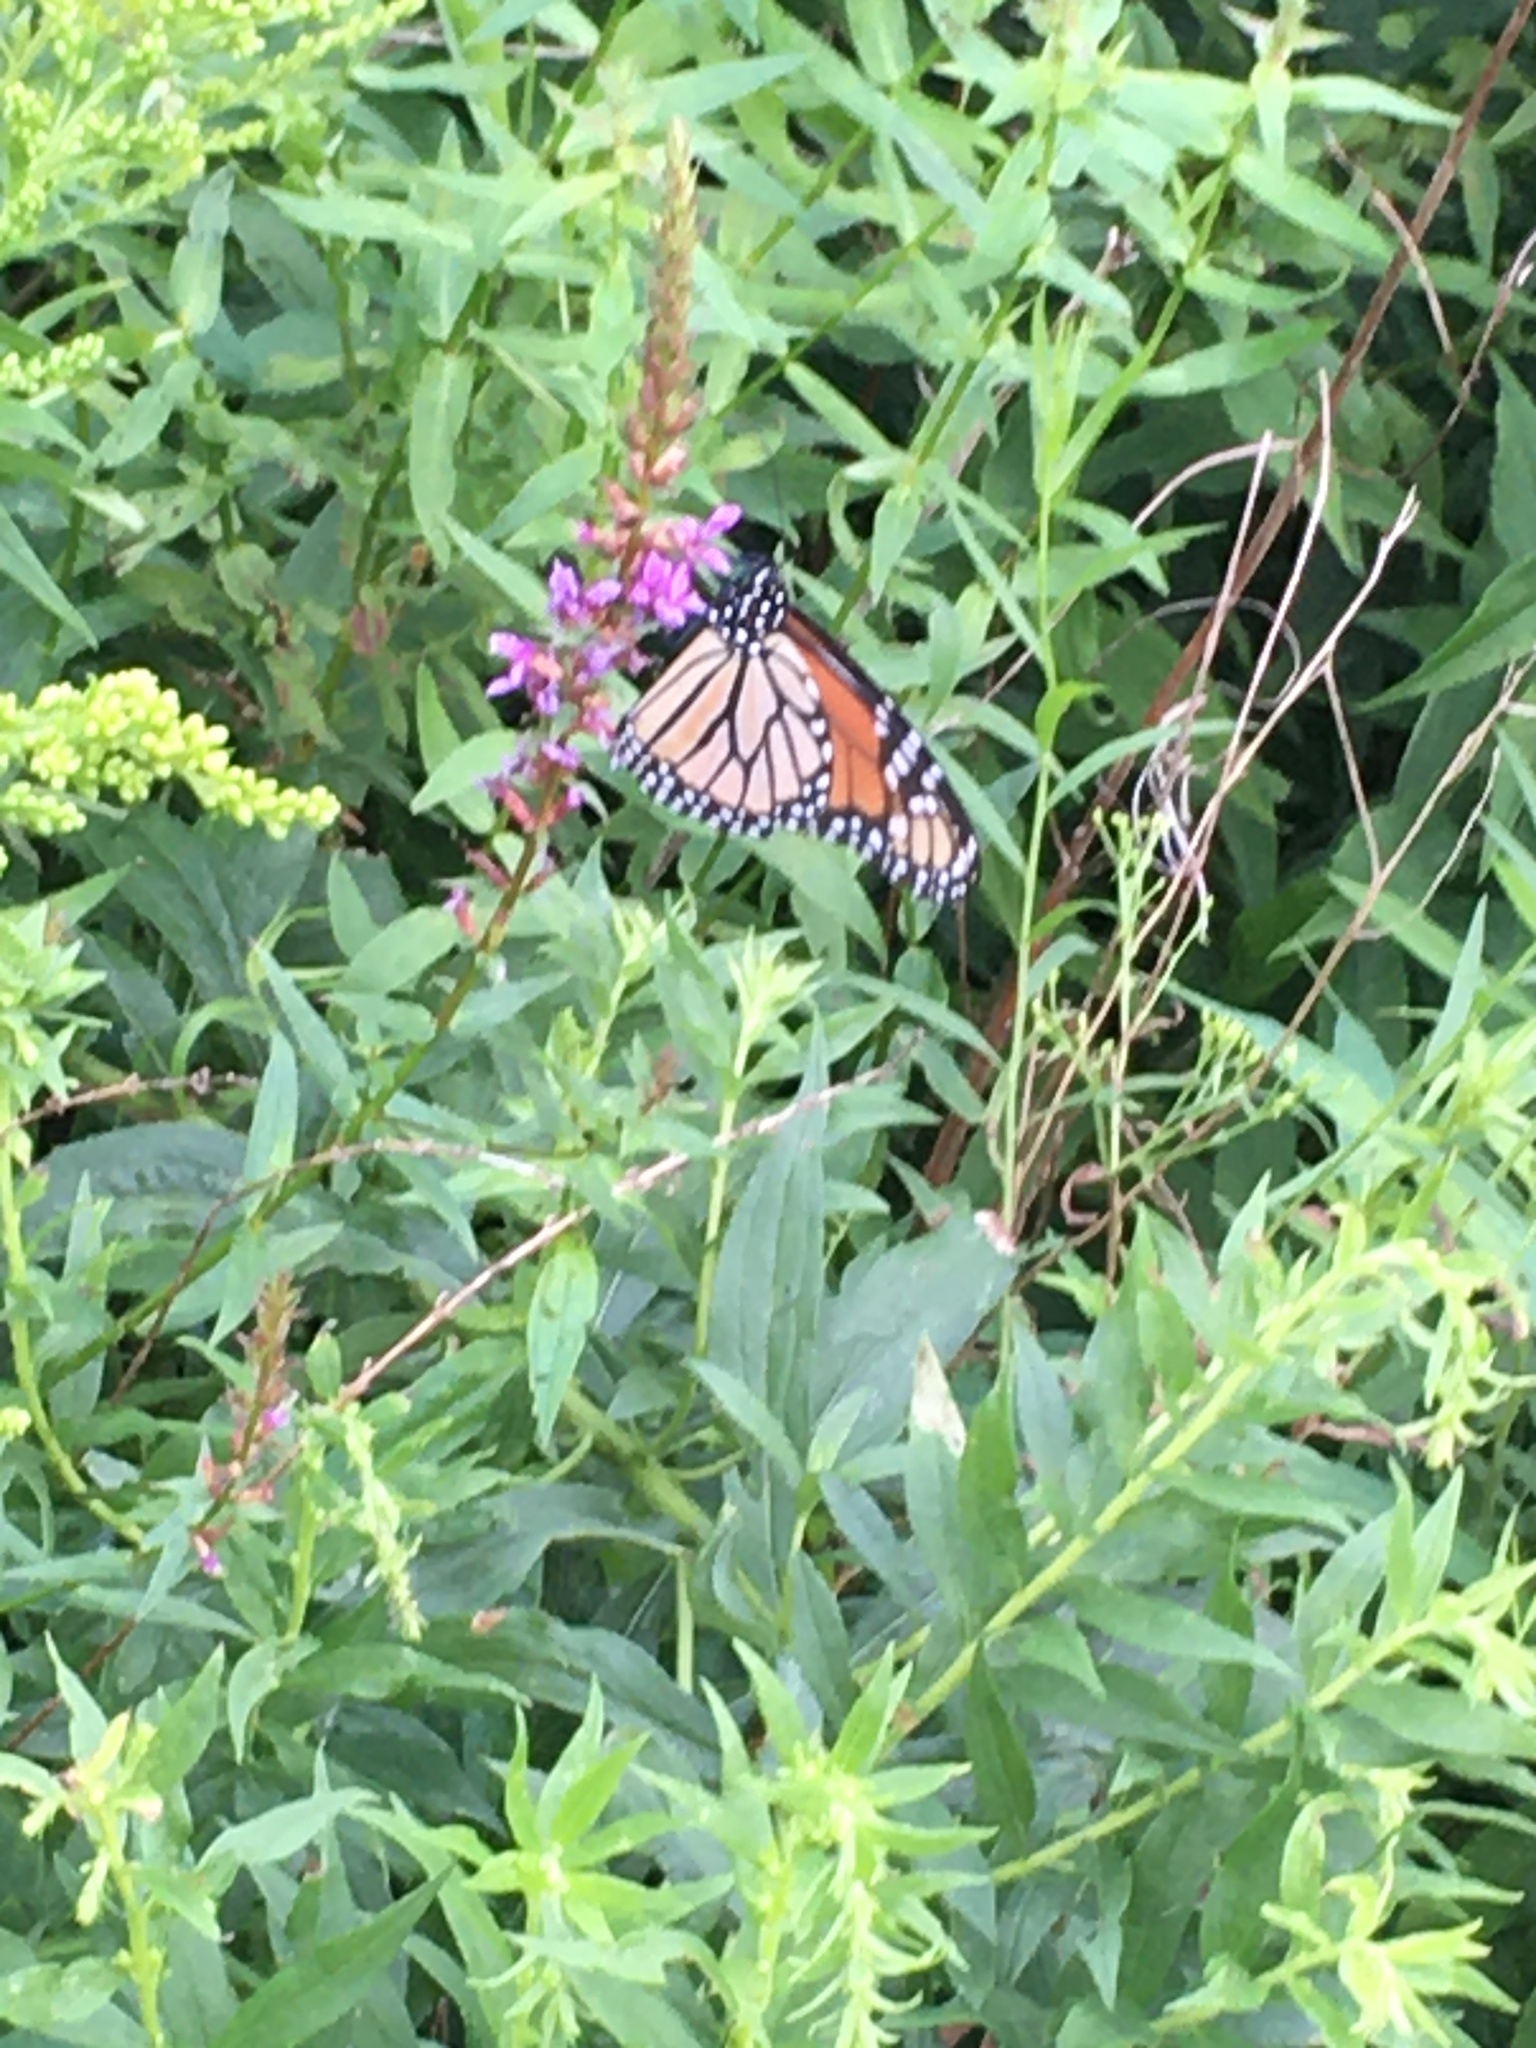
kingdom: Animalia
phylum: Arthropoda
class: Insecta
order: Lepidoptera
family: Nymphalidae
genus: Danaus
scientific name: Danaus plexippus
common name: Monarch
